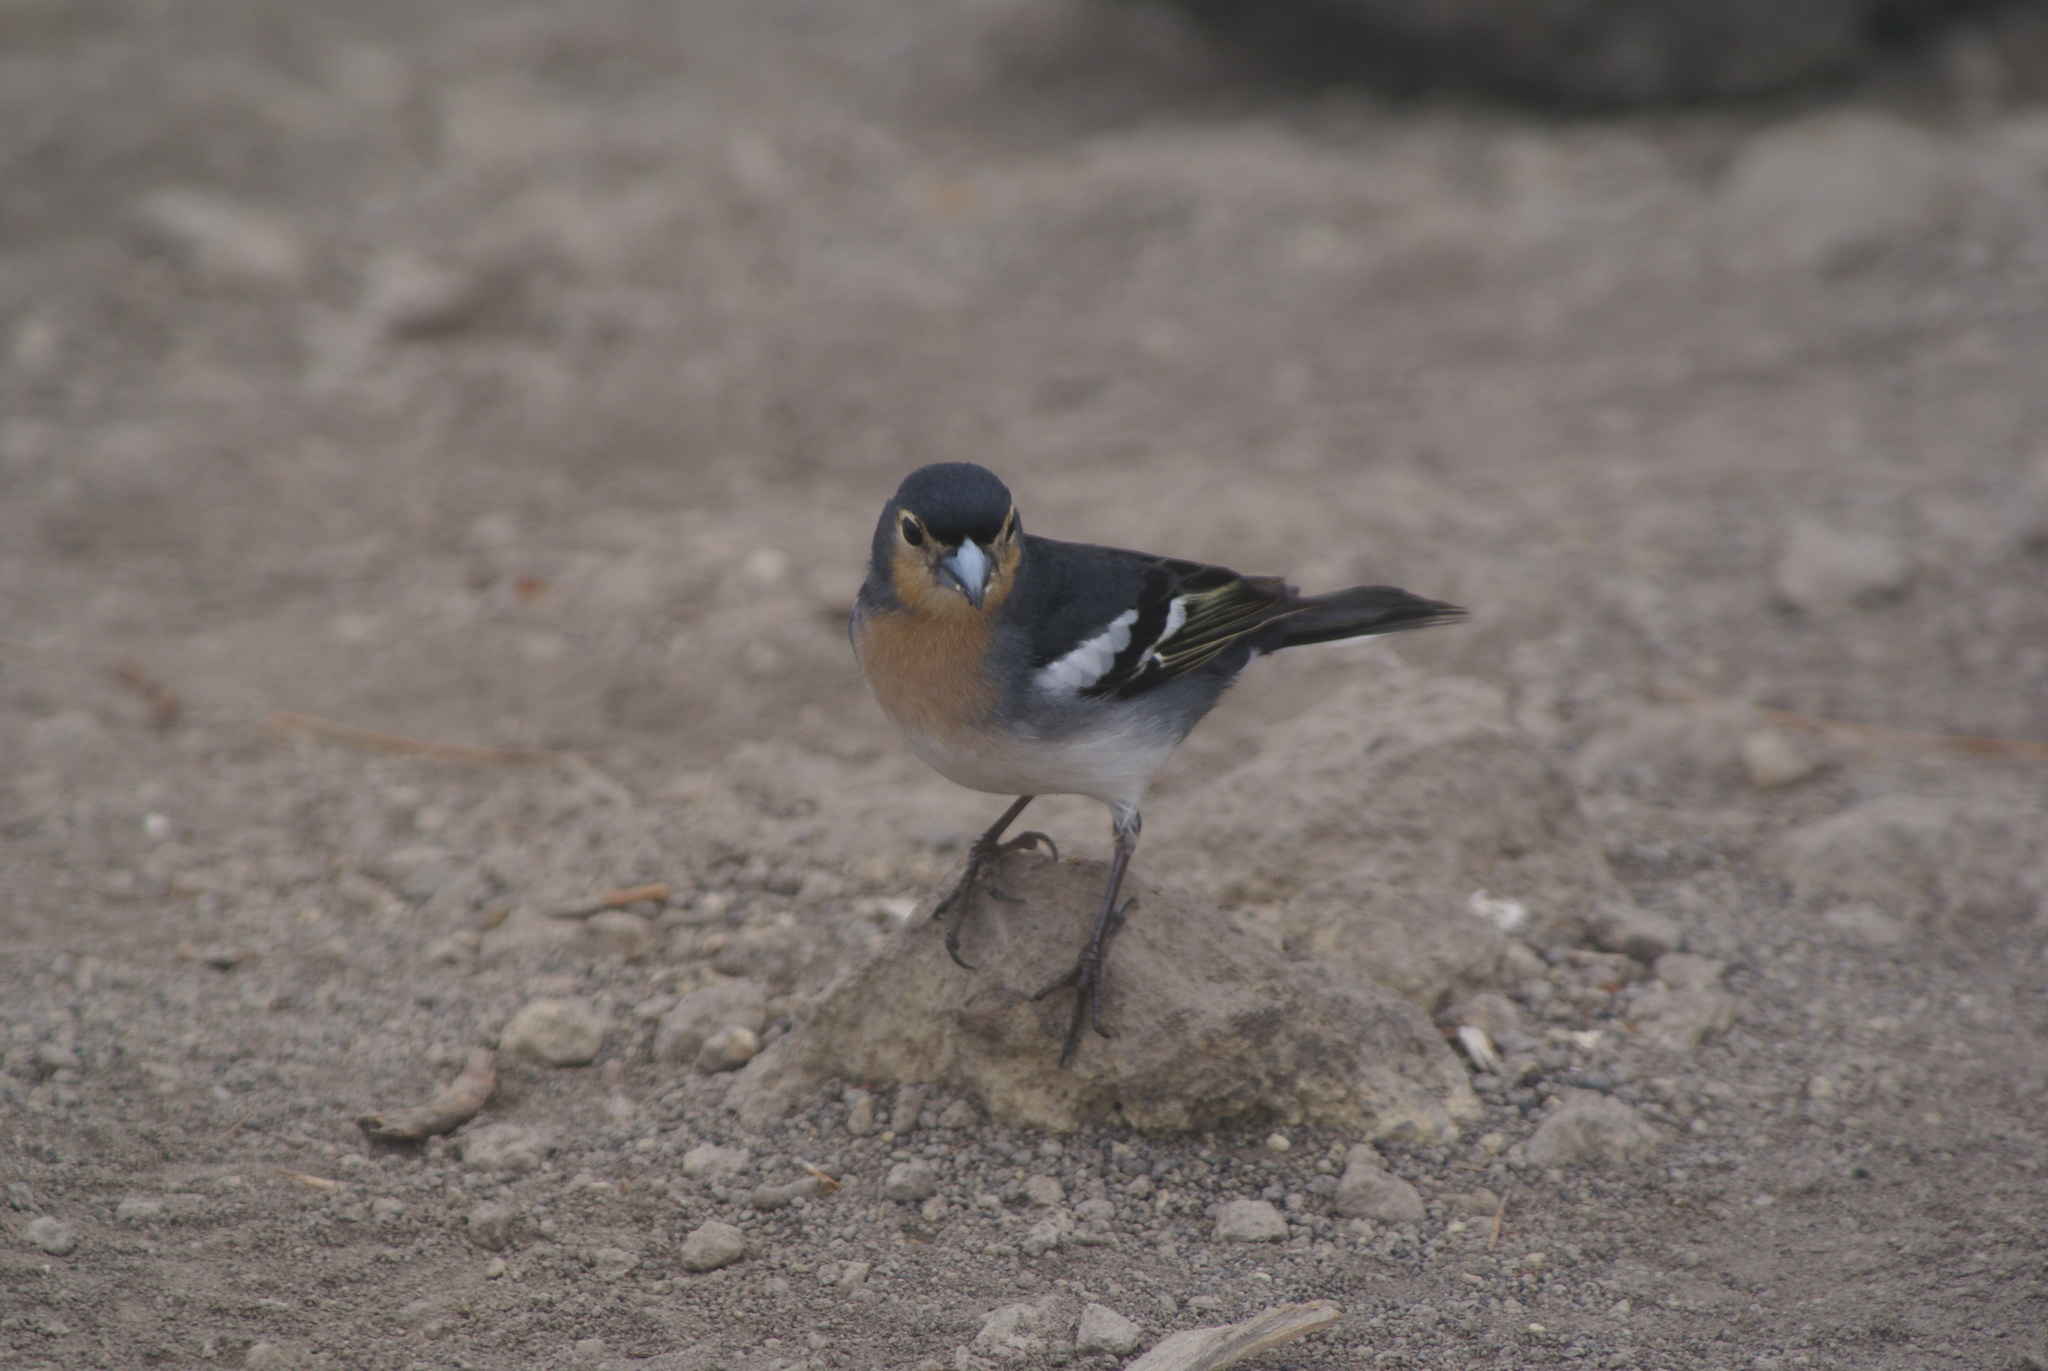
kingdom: Animalia
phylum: Chordata
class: Aves
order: Passeriformes
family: Fringillidae
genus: Fringilla
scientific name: Fringilla canariensis
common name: Canary islands chaffinch
